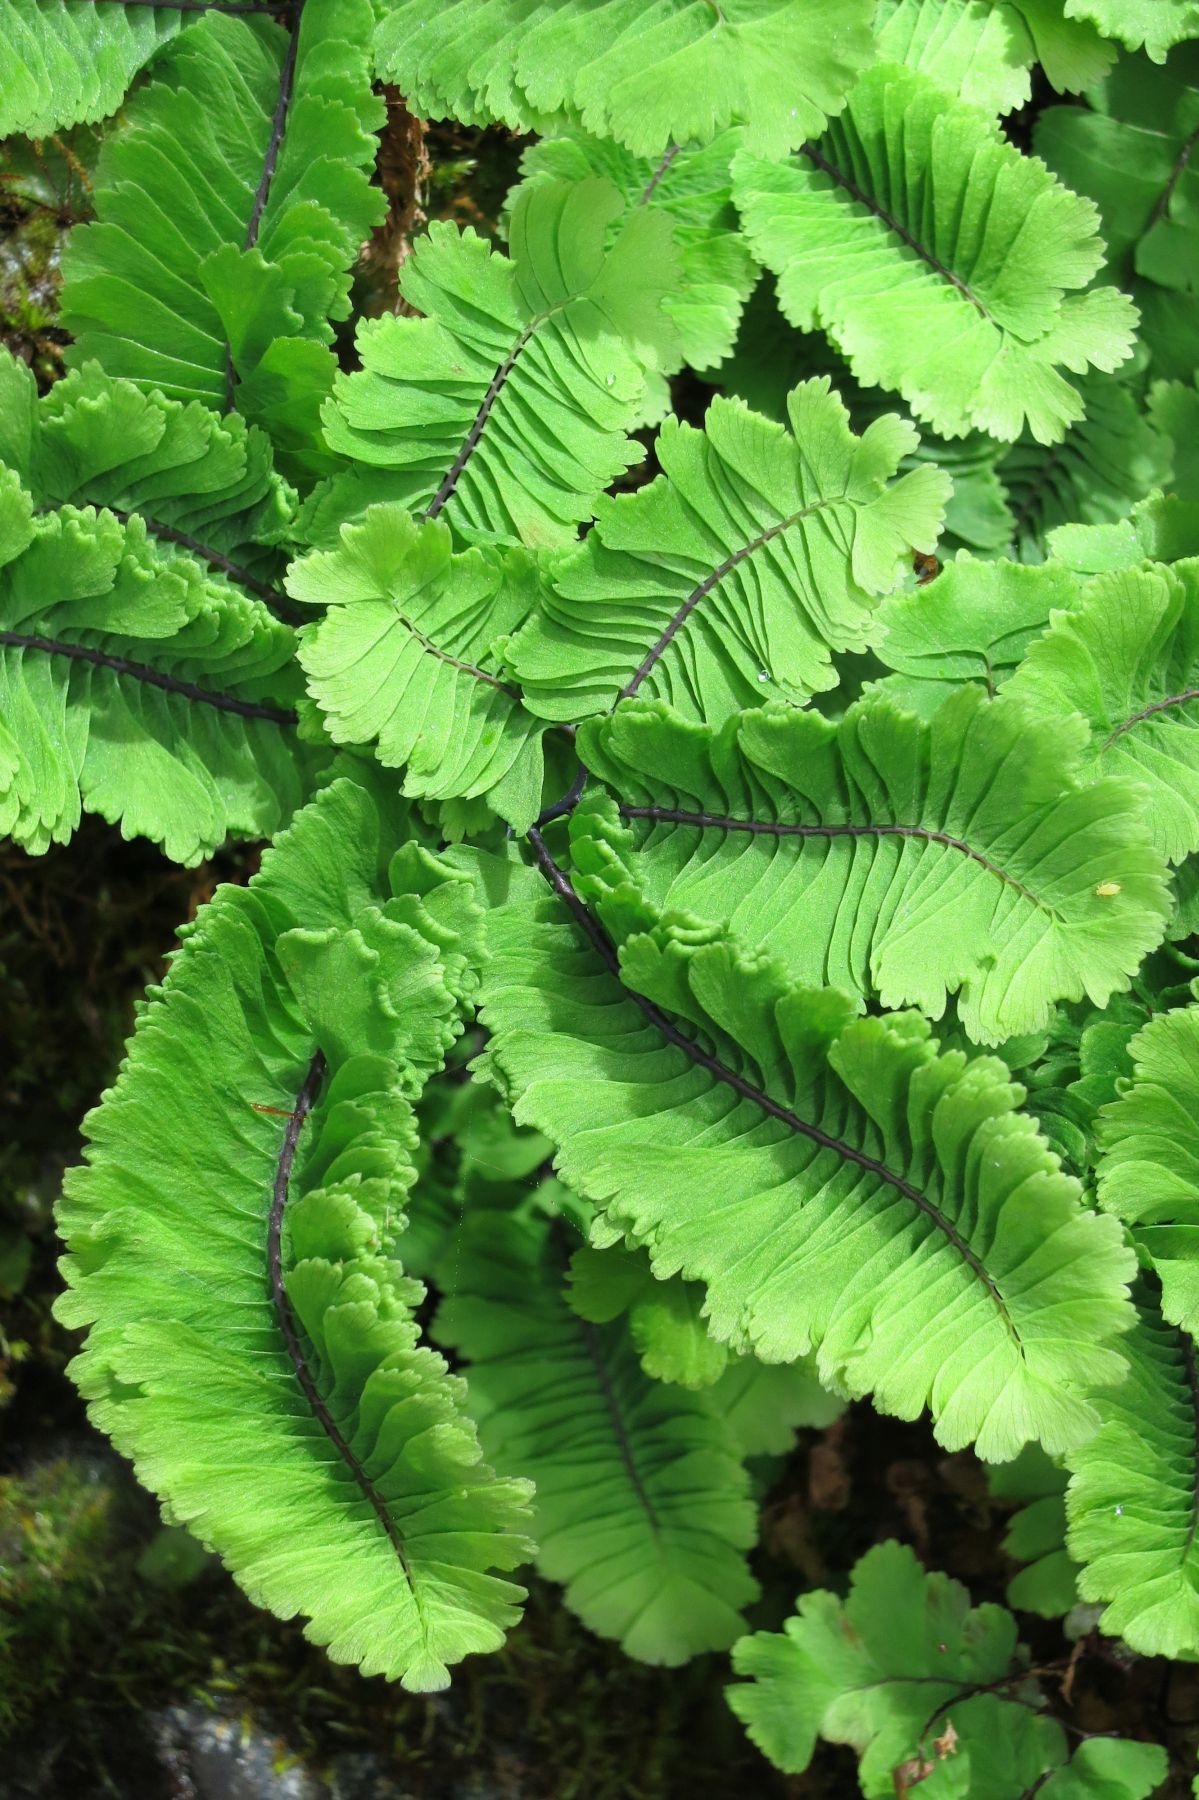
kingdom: Plantae
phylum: Tracheophyta
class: Polypodiopsida
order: Polypodiales
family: Pteridaceae
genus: Adiantum
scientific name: Adiantum aleuticum
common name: Aleutian maidenhair fern
